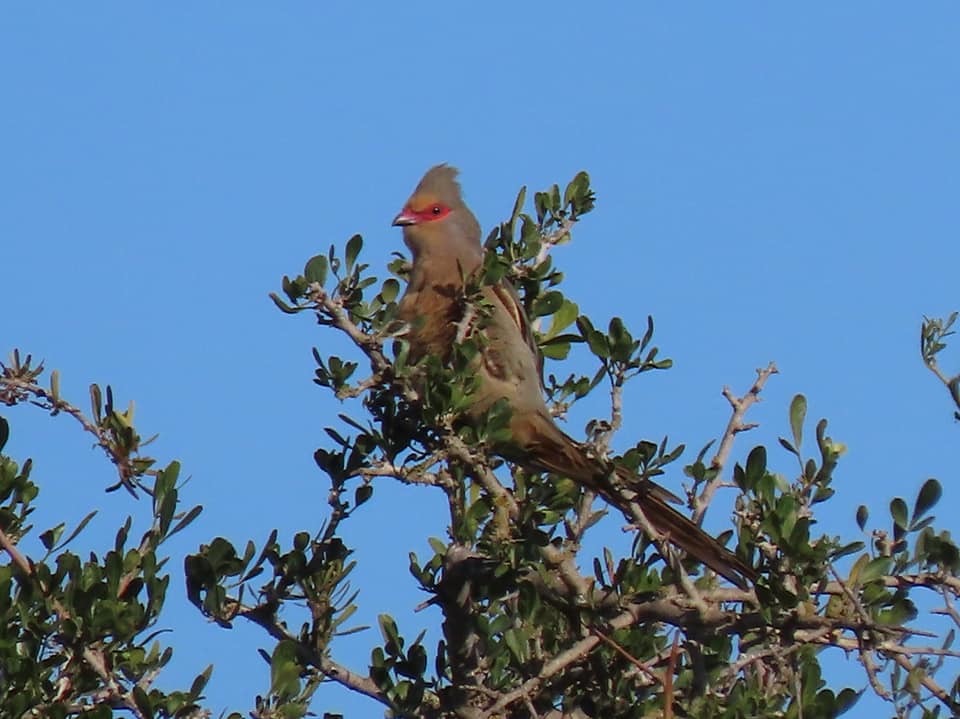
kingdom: Animalia
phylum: Chordata
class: Aves
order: Coliiformes
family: Coliidae
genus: Urocolius
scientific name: Urocolius indicus
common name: Red-faced mousebird
